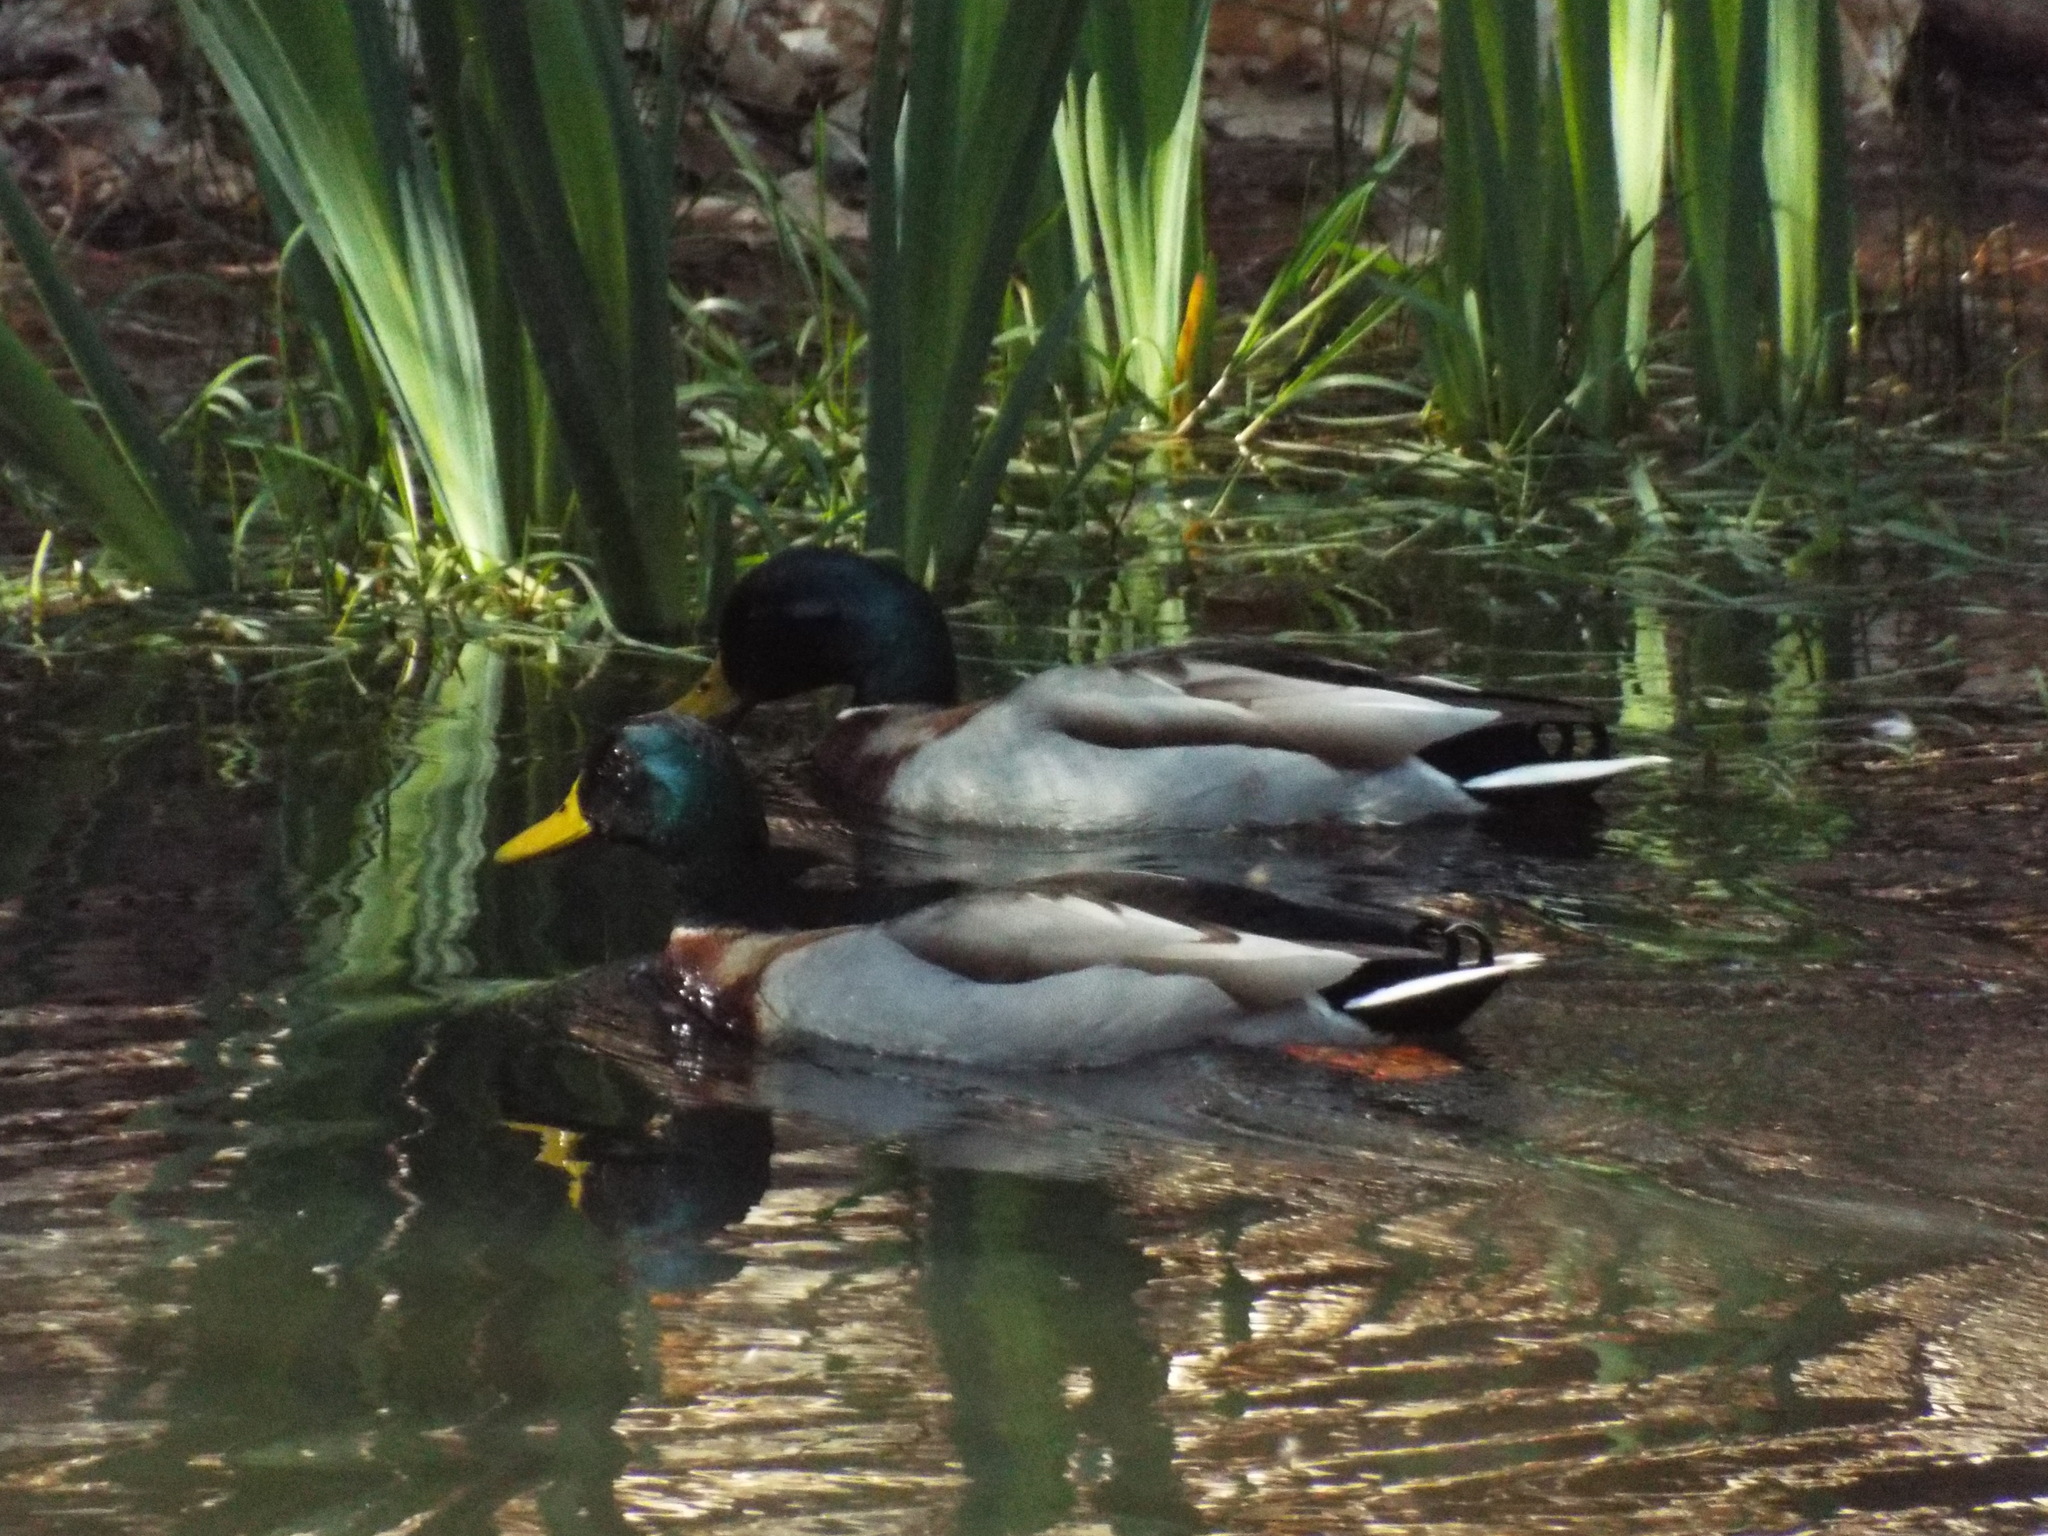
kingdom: Animalia
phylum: Chordata
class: Aves
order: Anseriformes
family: Anatidae
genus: Anas
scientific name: Anas platyrhynchos
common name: Mallard
